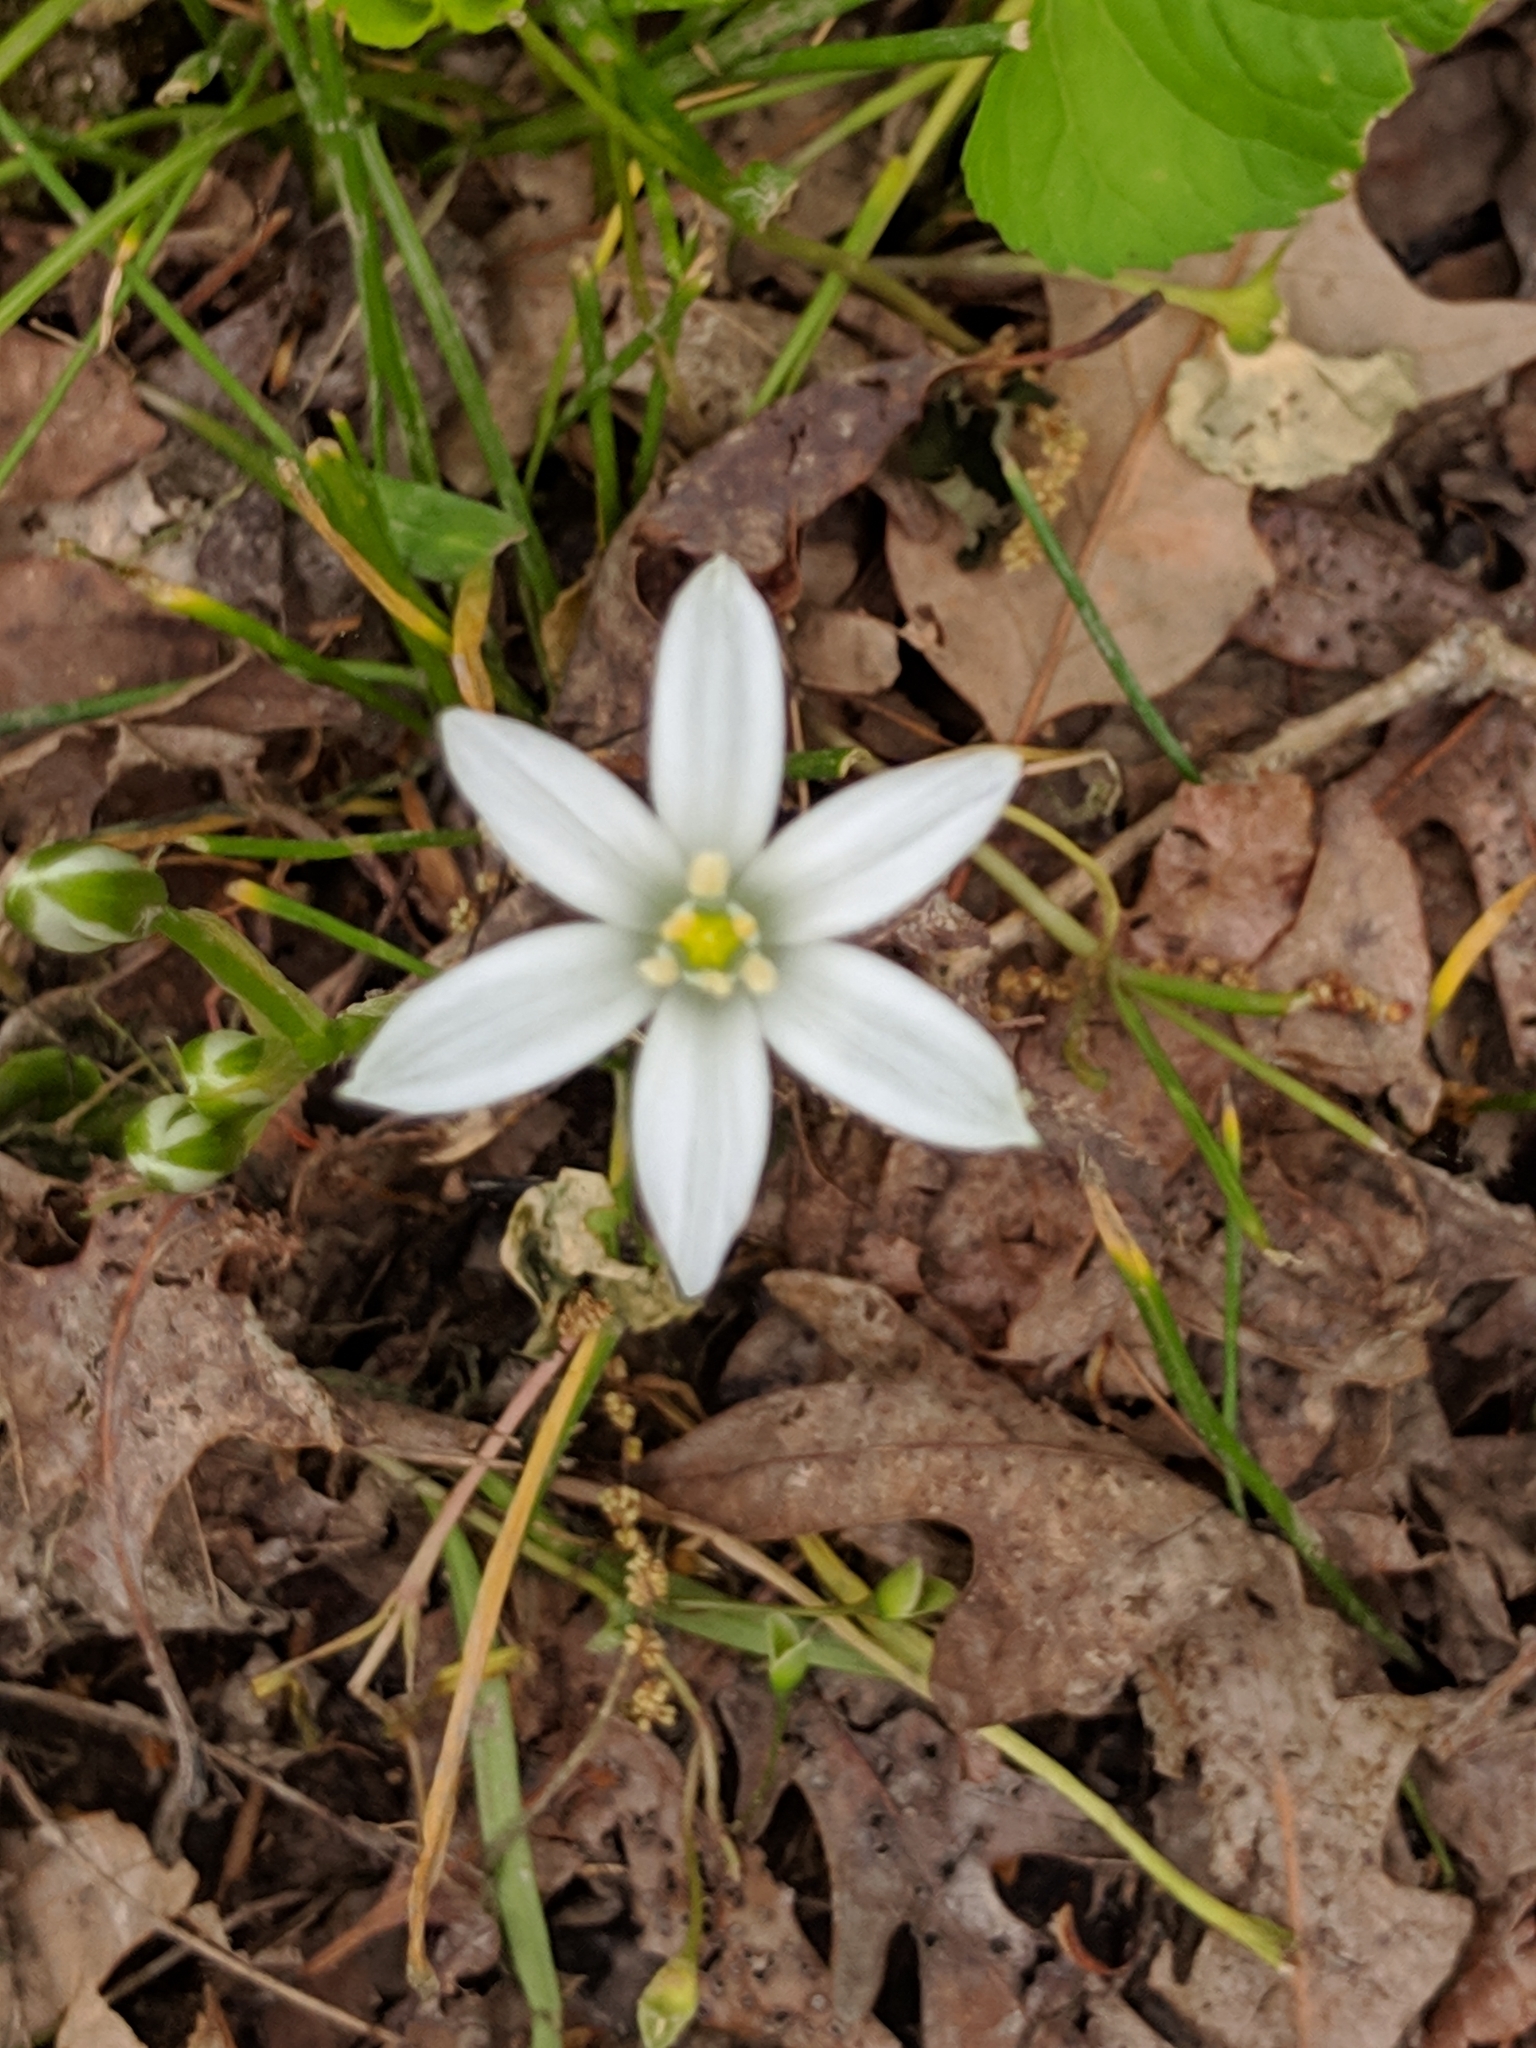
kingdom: Plantae
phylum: Tracheophyta
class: Liliopsida
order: Asparagales
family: Asparagaceae
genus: Ornithogalum
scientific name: Ornithogalum umbellatum
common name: Garden star-of-bethlehem
